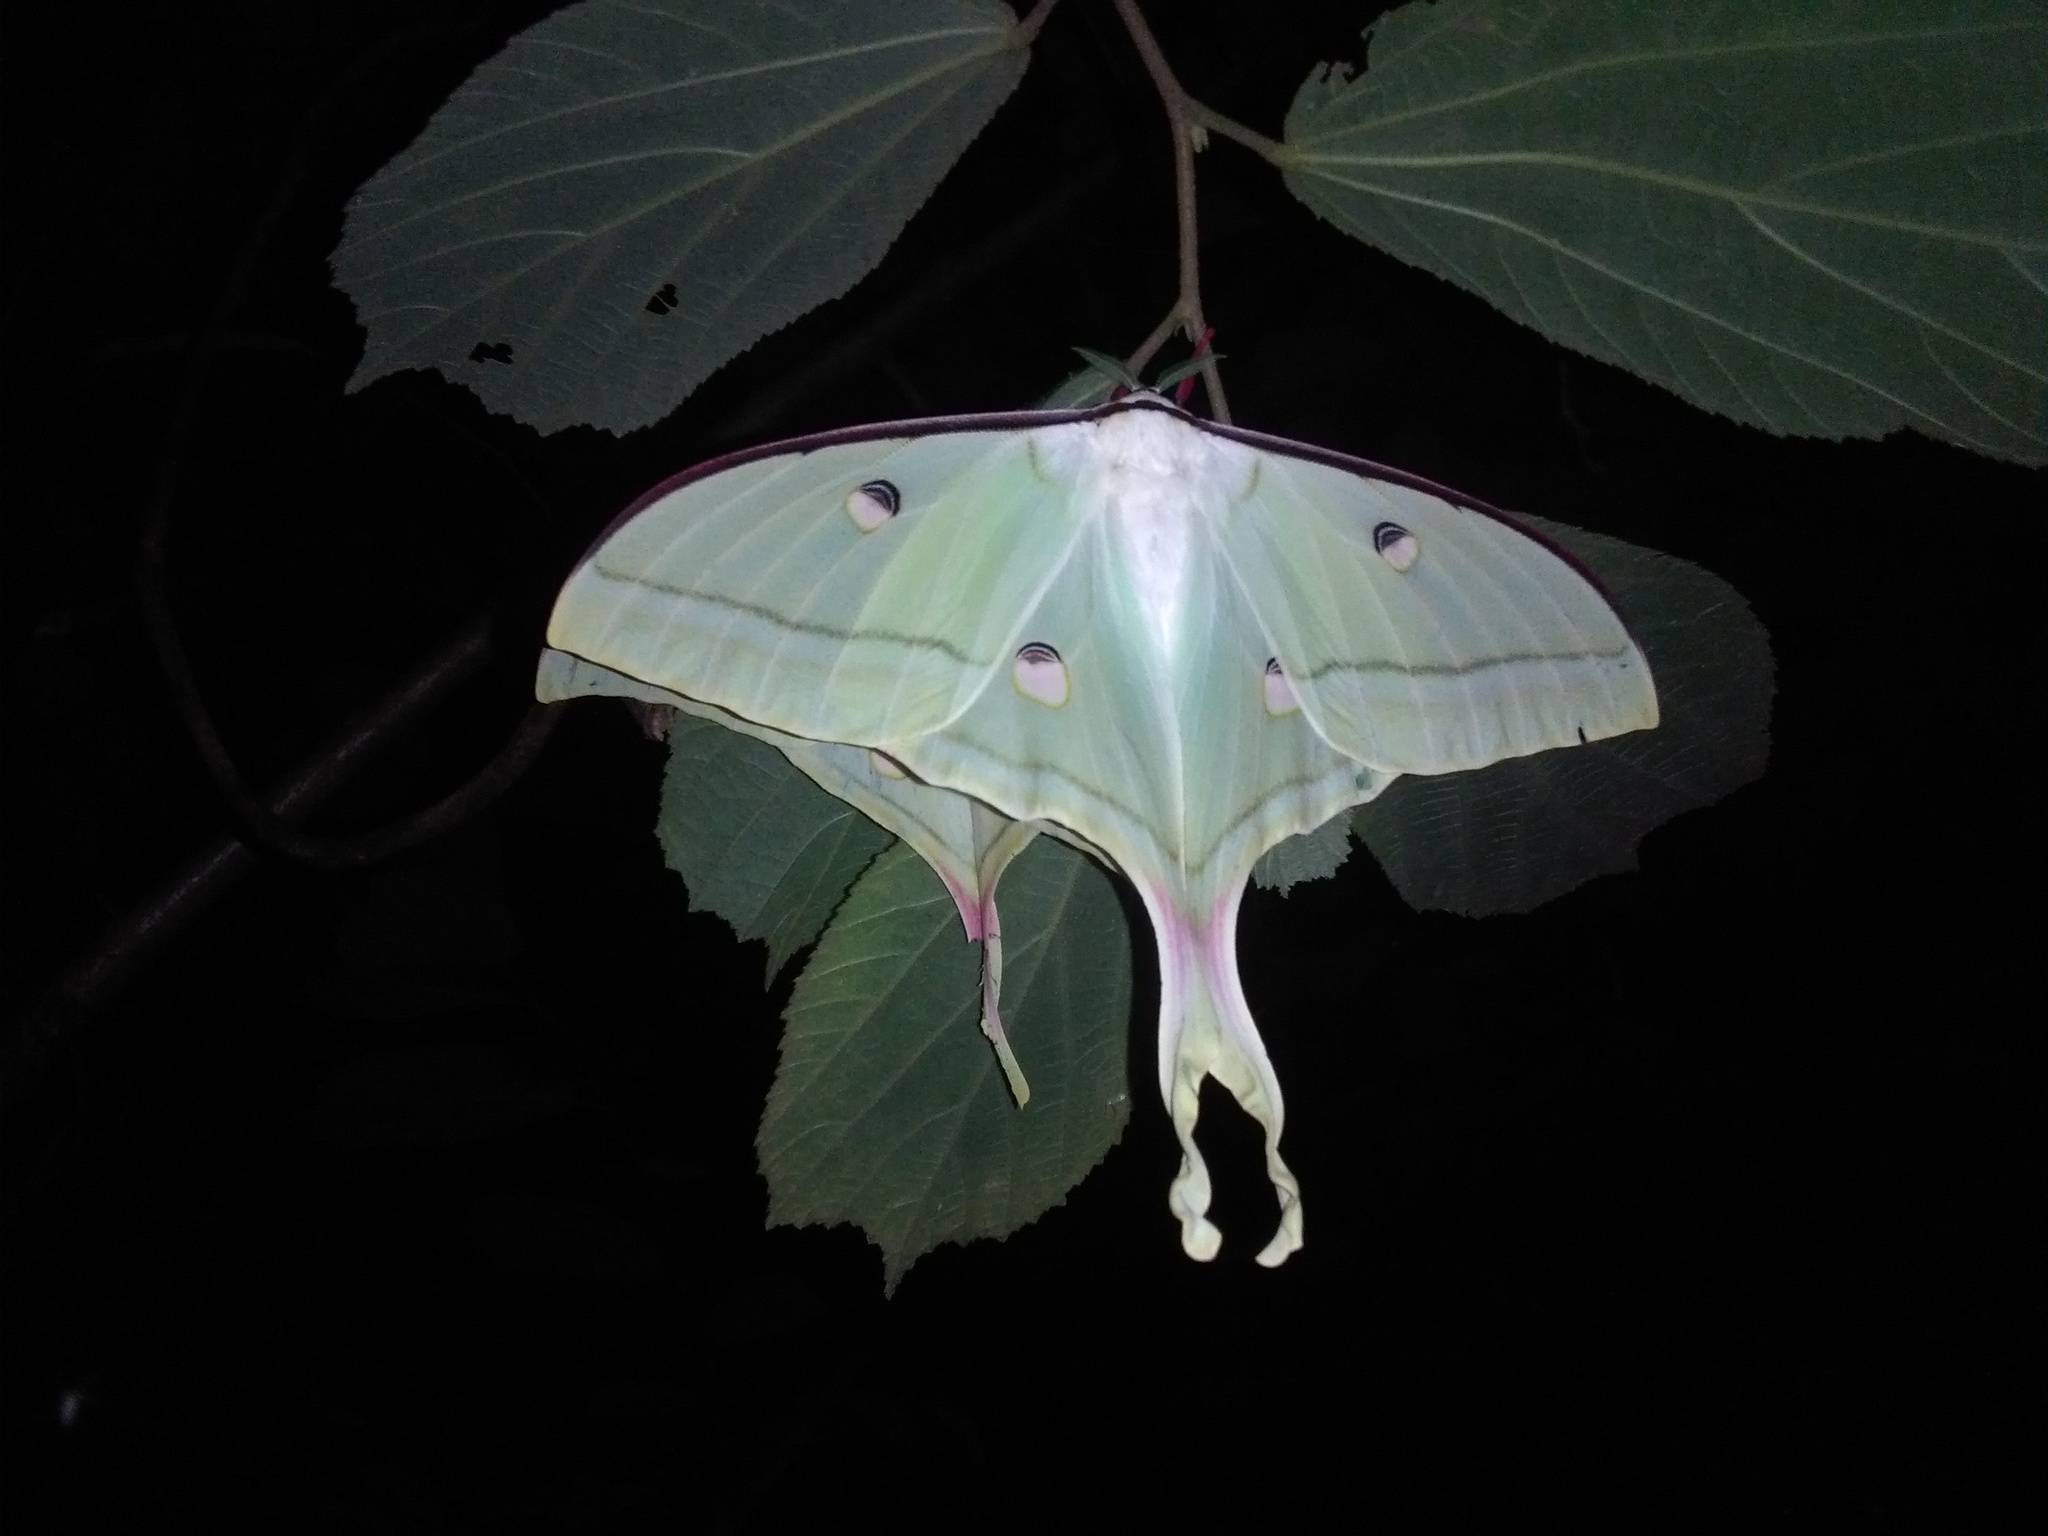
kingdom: Animalia
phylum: Arthropoda
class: Insecta
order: Lepidoptera
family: Saturniidae
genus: Actias
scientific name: Actias selene
